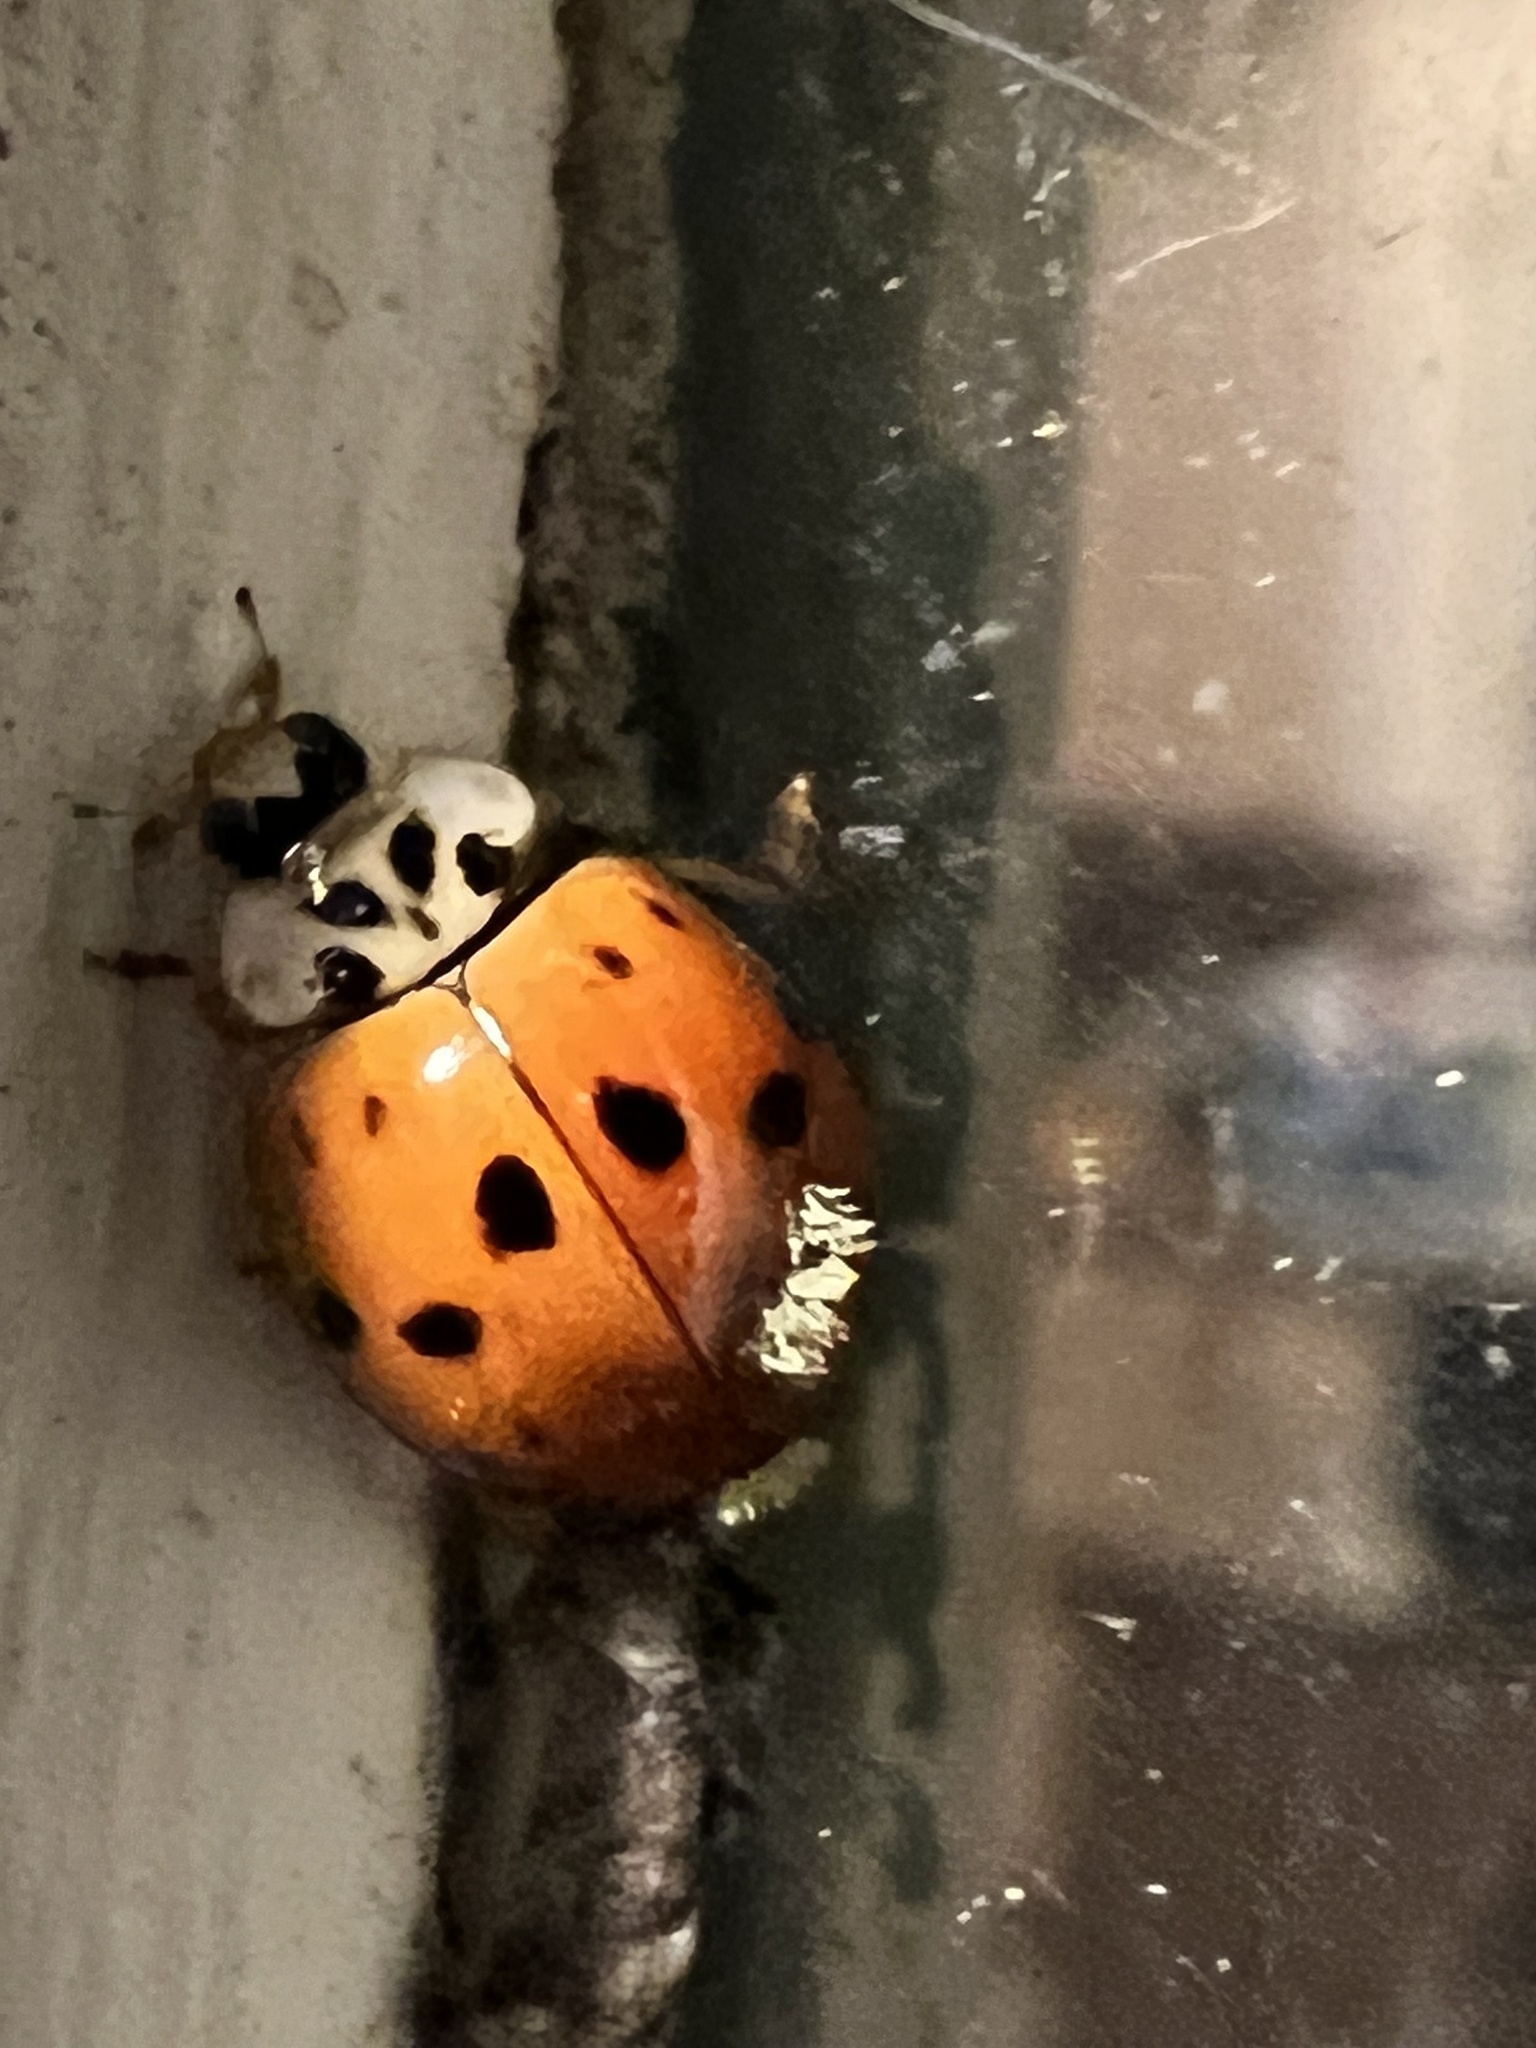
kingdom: Fungi
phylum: Ascomycota
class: Laboulbeniomycetes
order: Laboulbeniales
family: Laboulbeniaceae
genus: Hesperomyces
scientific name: Hesperomyces harmoniae
